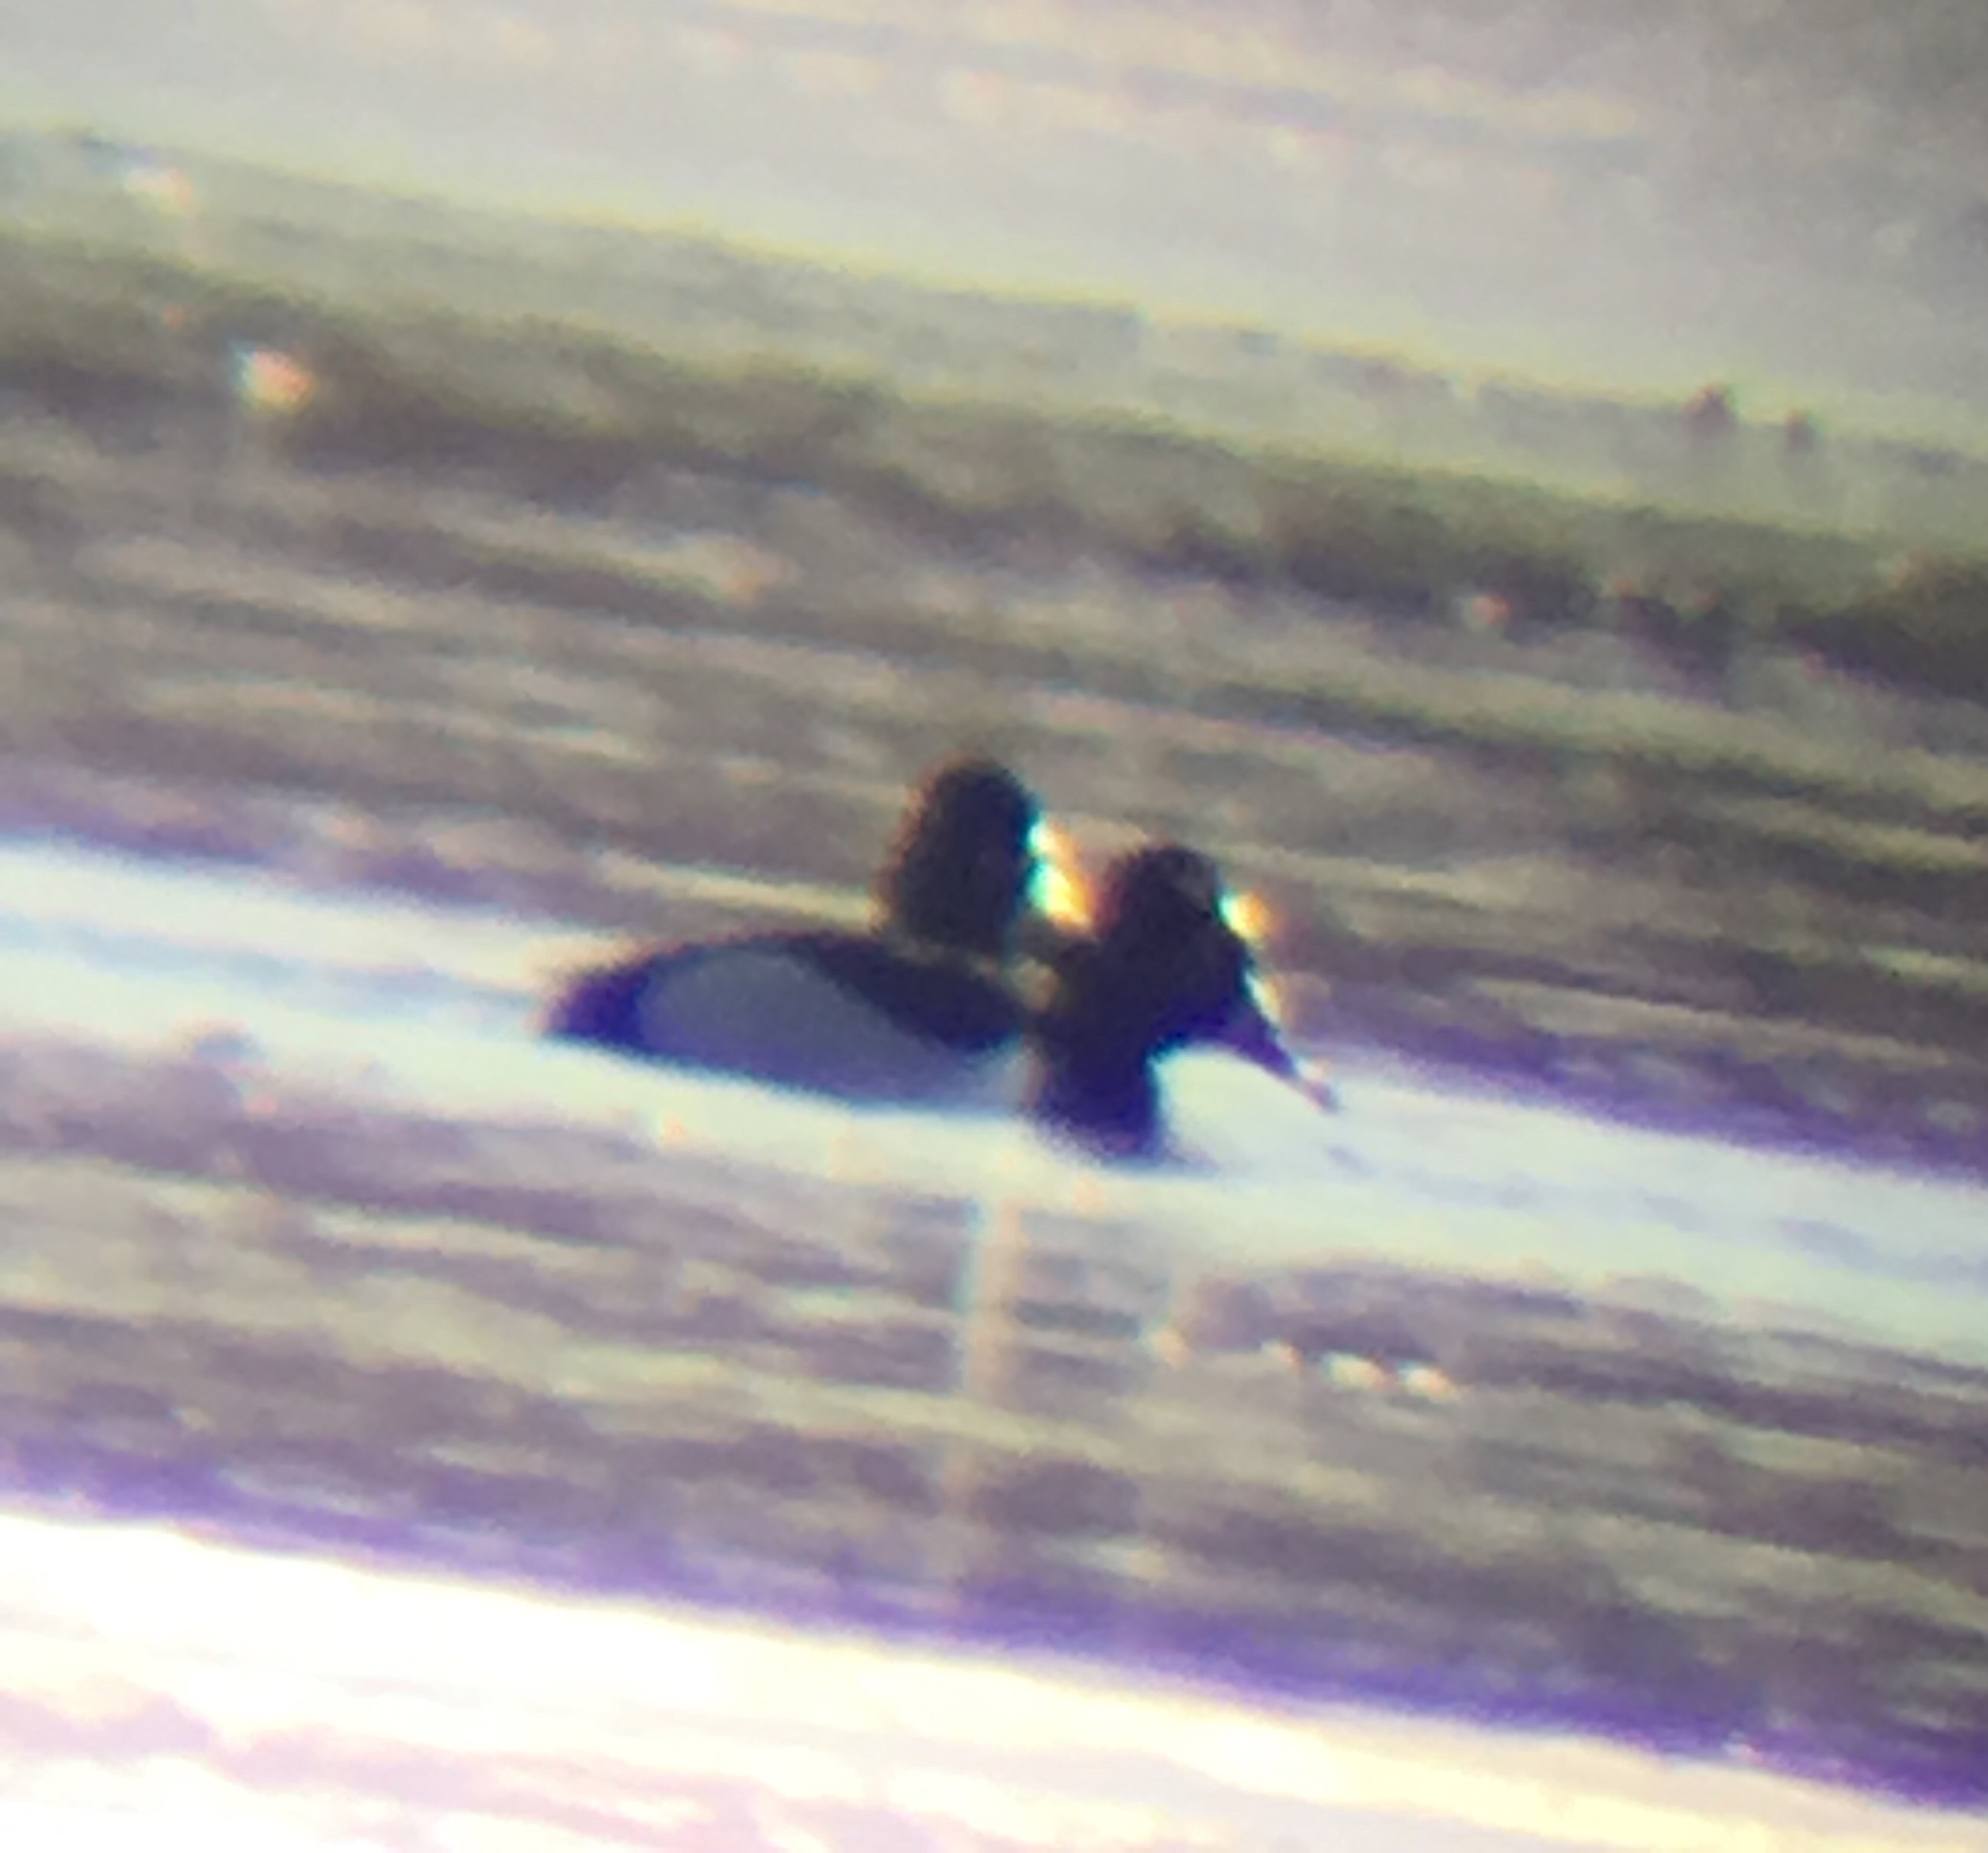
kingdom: Animalia
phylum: Chordata
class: Aves
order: Anseriformes
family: Anatidae
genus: Aythya
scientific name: Aythya collaris
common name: Ring-necked duck
